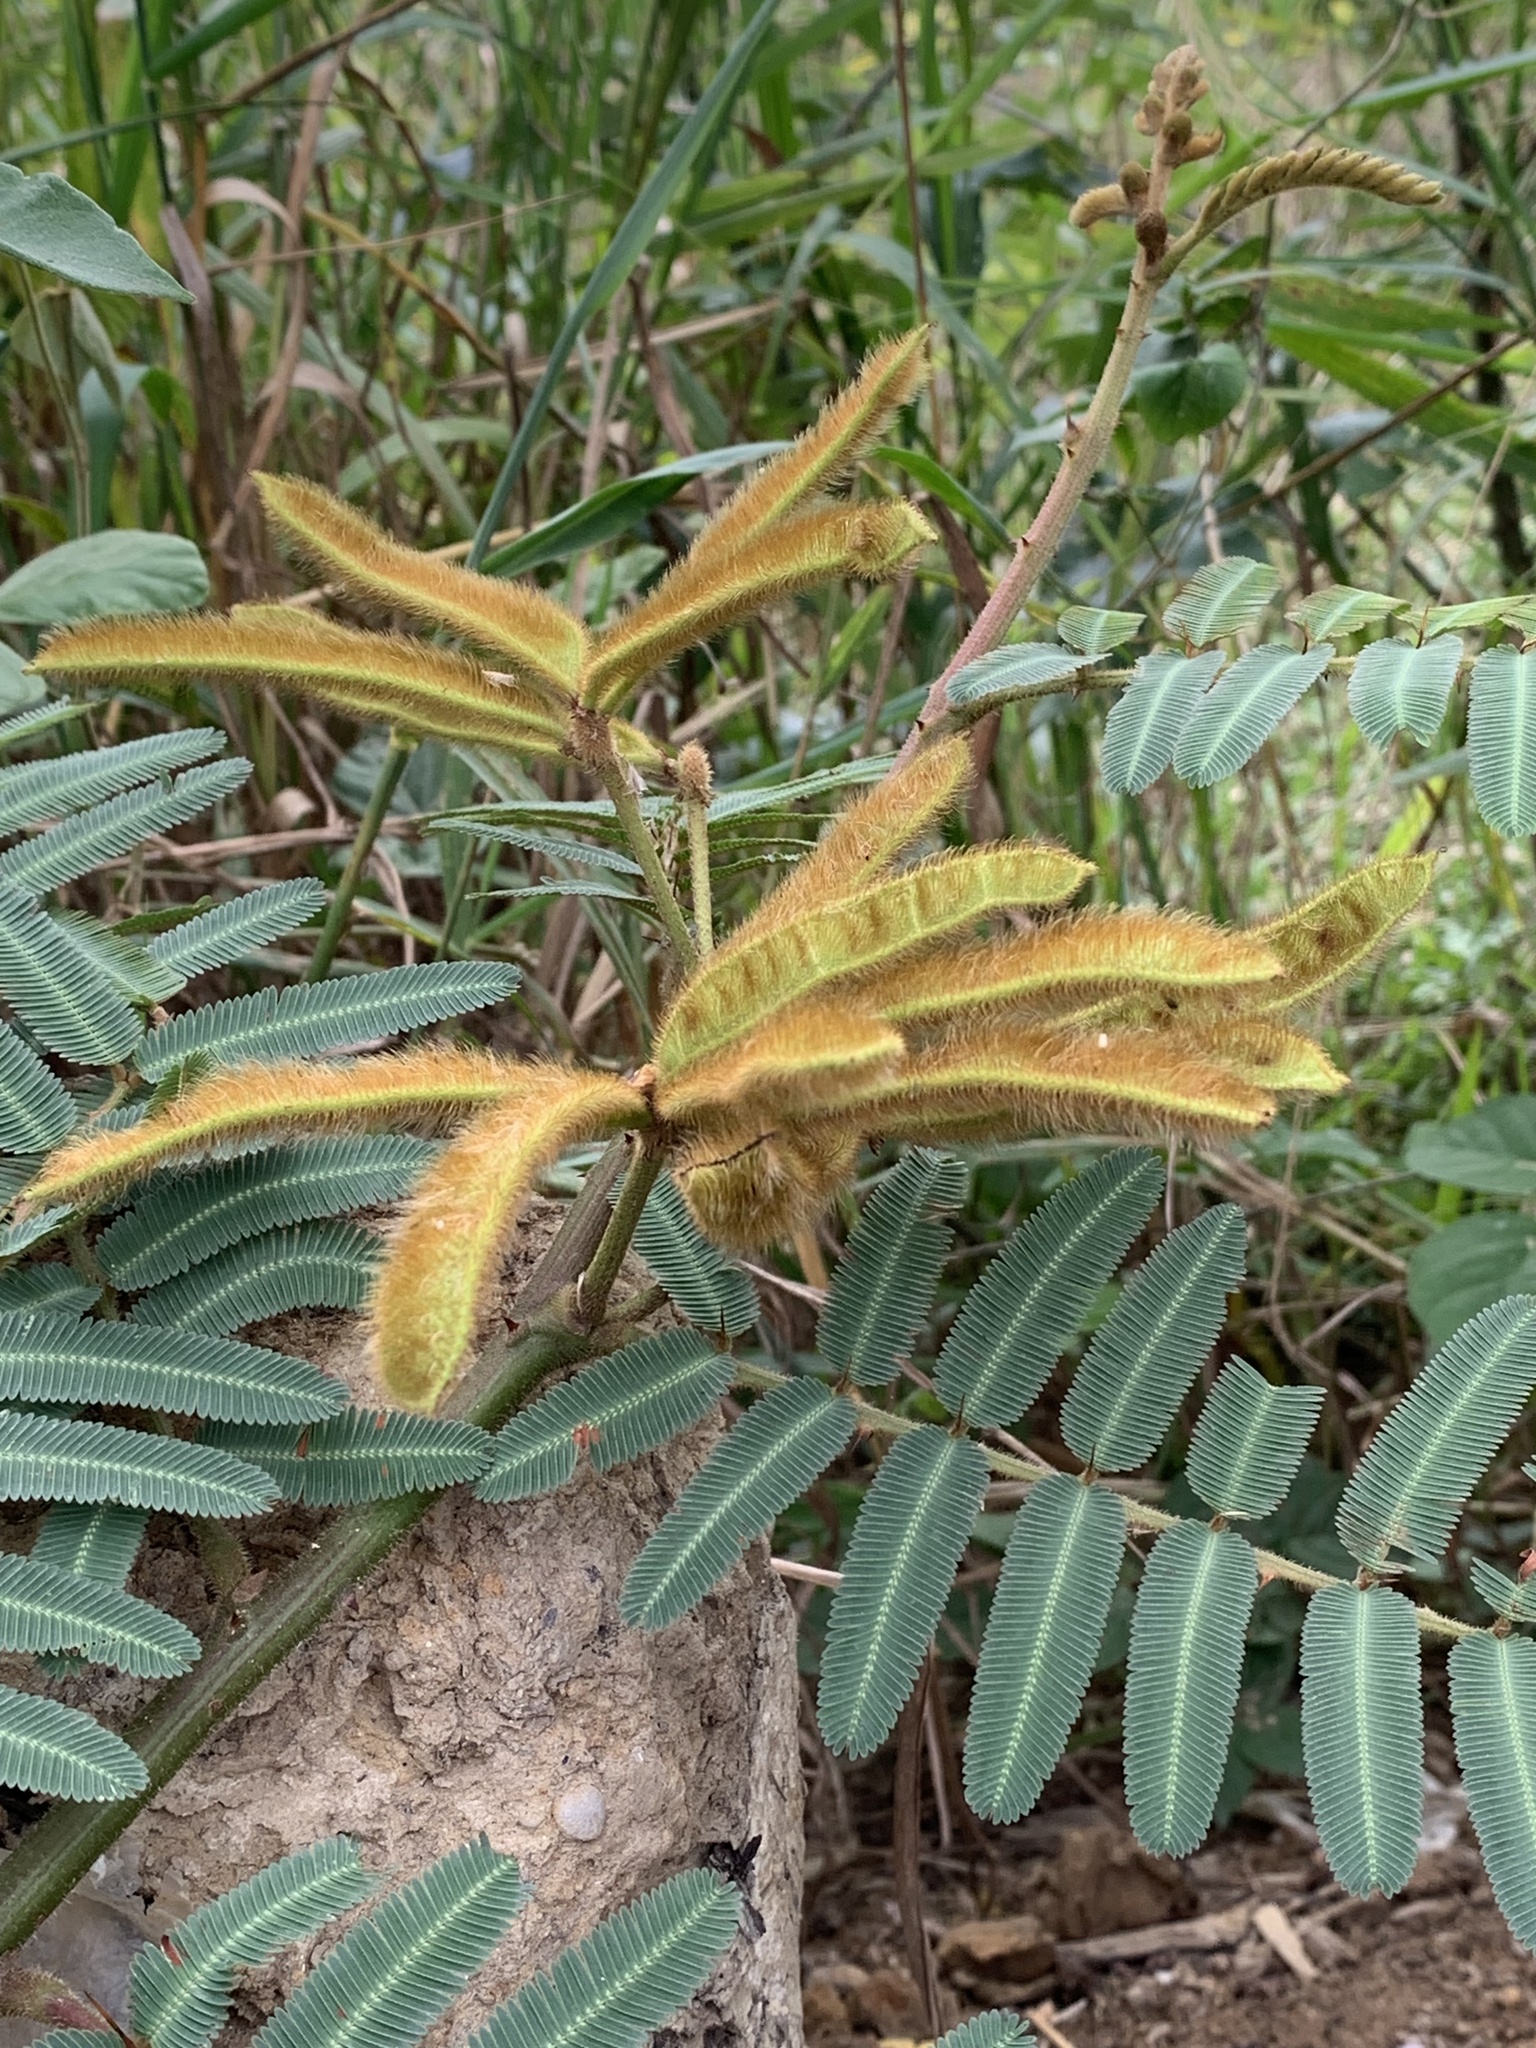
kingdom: Plantae
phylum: Tracheophyta
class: Magnoliopsida
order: Fabales
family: Fabaceae
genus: Mimosa
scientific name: Mimosa pigra
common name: Black mimosa
